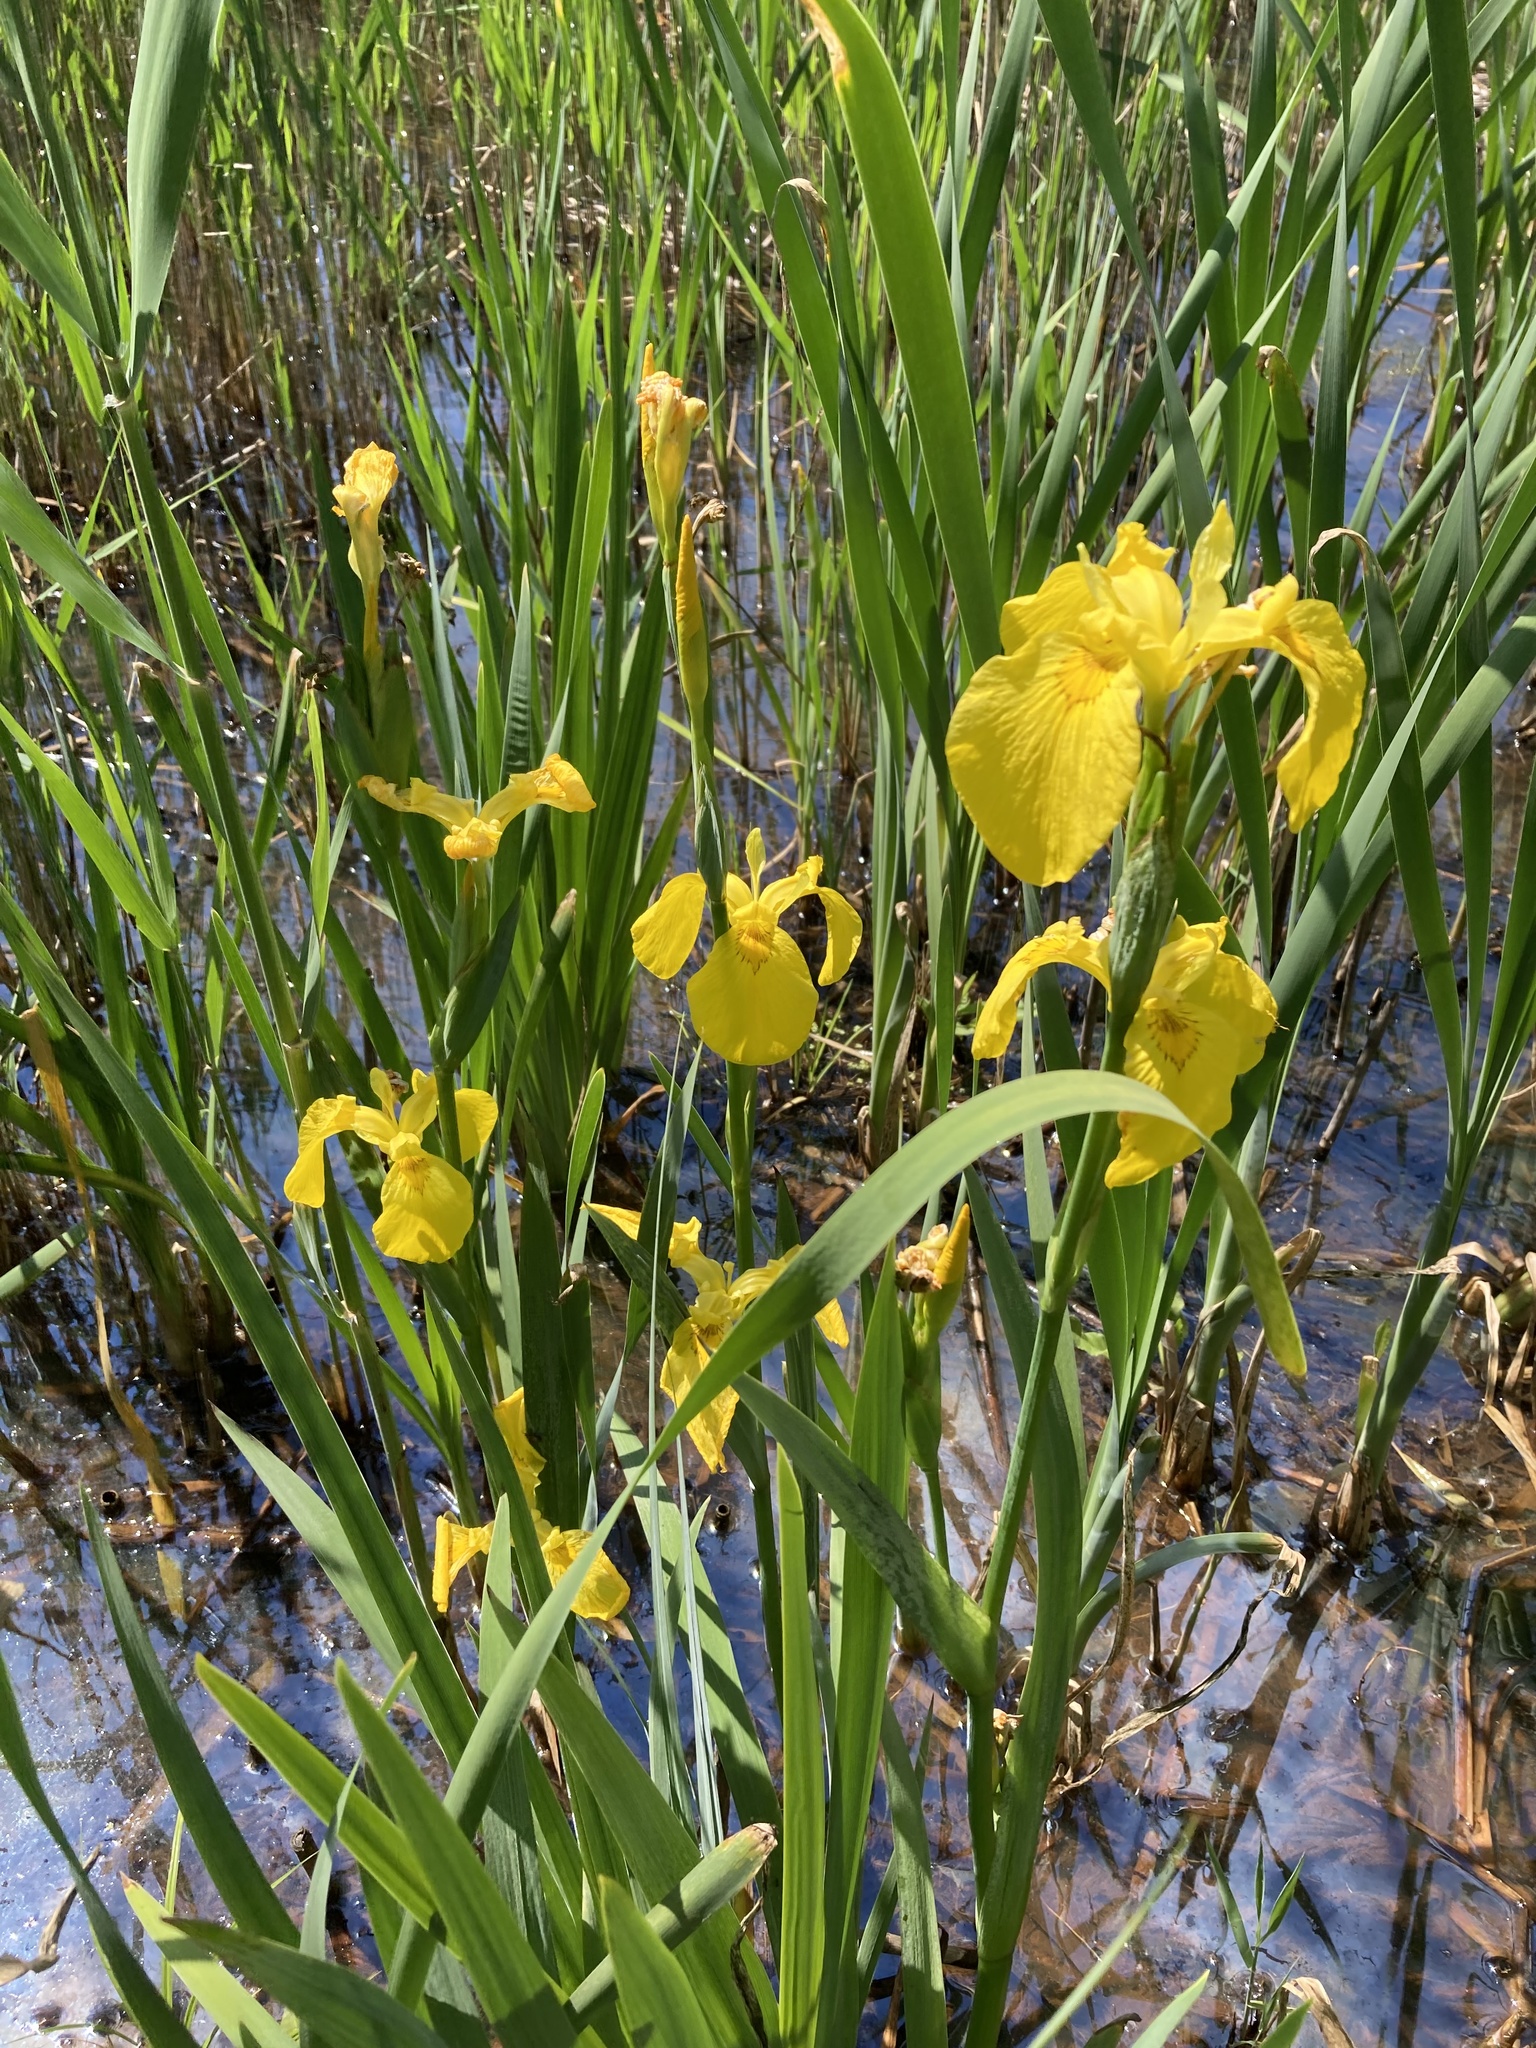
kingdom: Plantae
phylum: Tracheophyta
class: Liliopsida
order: Asparagales
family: Iridaceae
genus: Iris
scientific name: Iris pseudacorus
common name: Yellow flag
